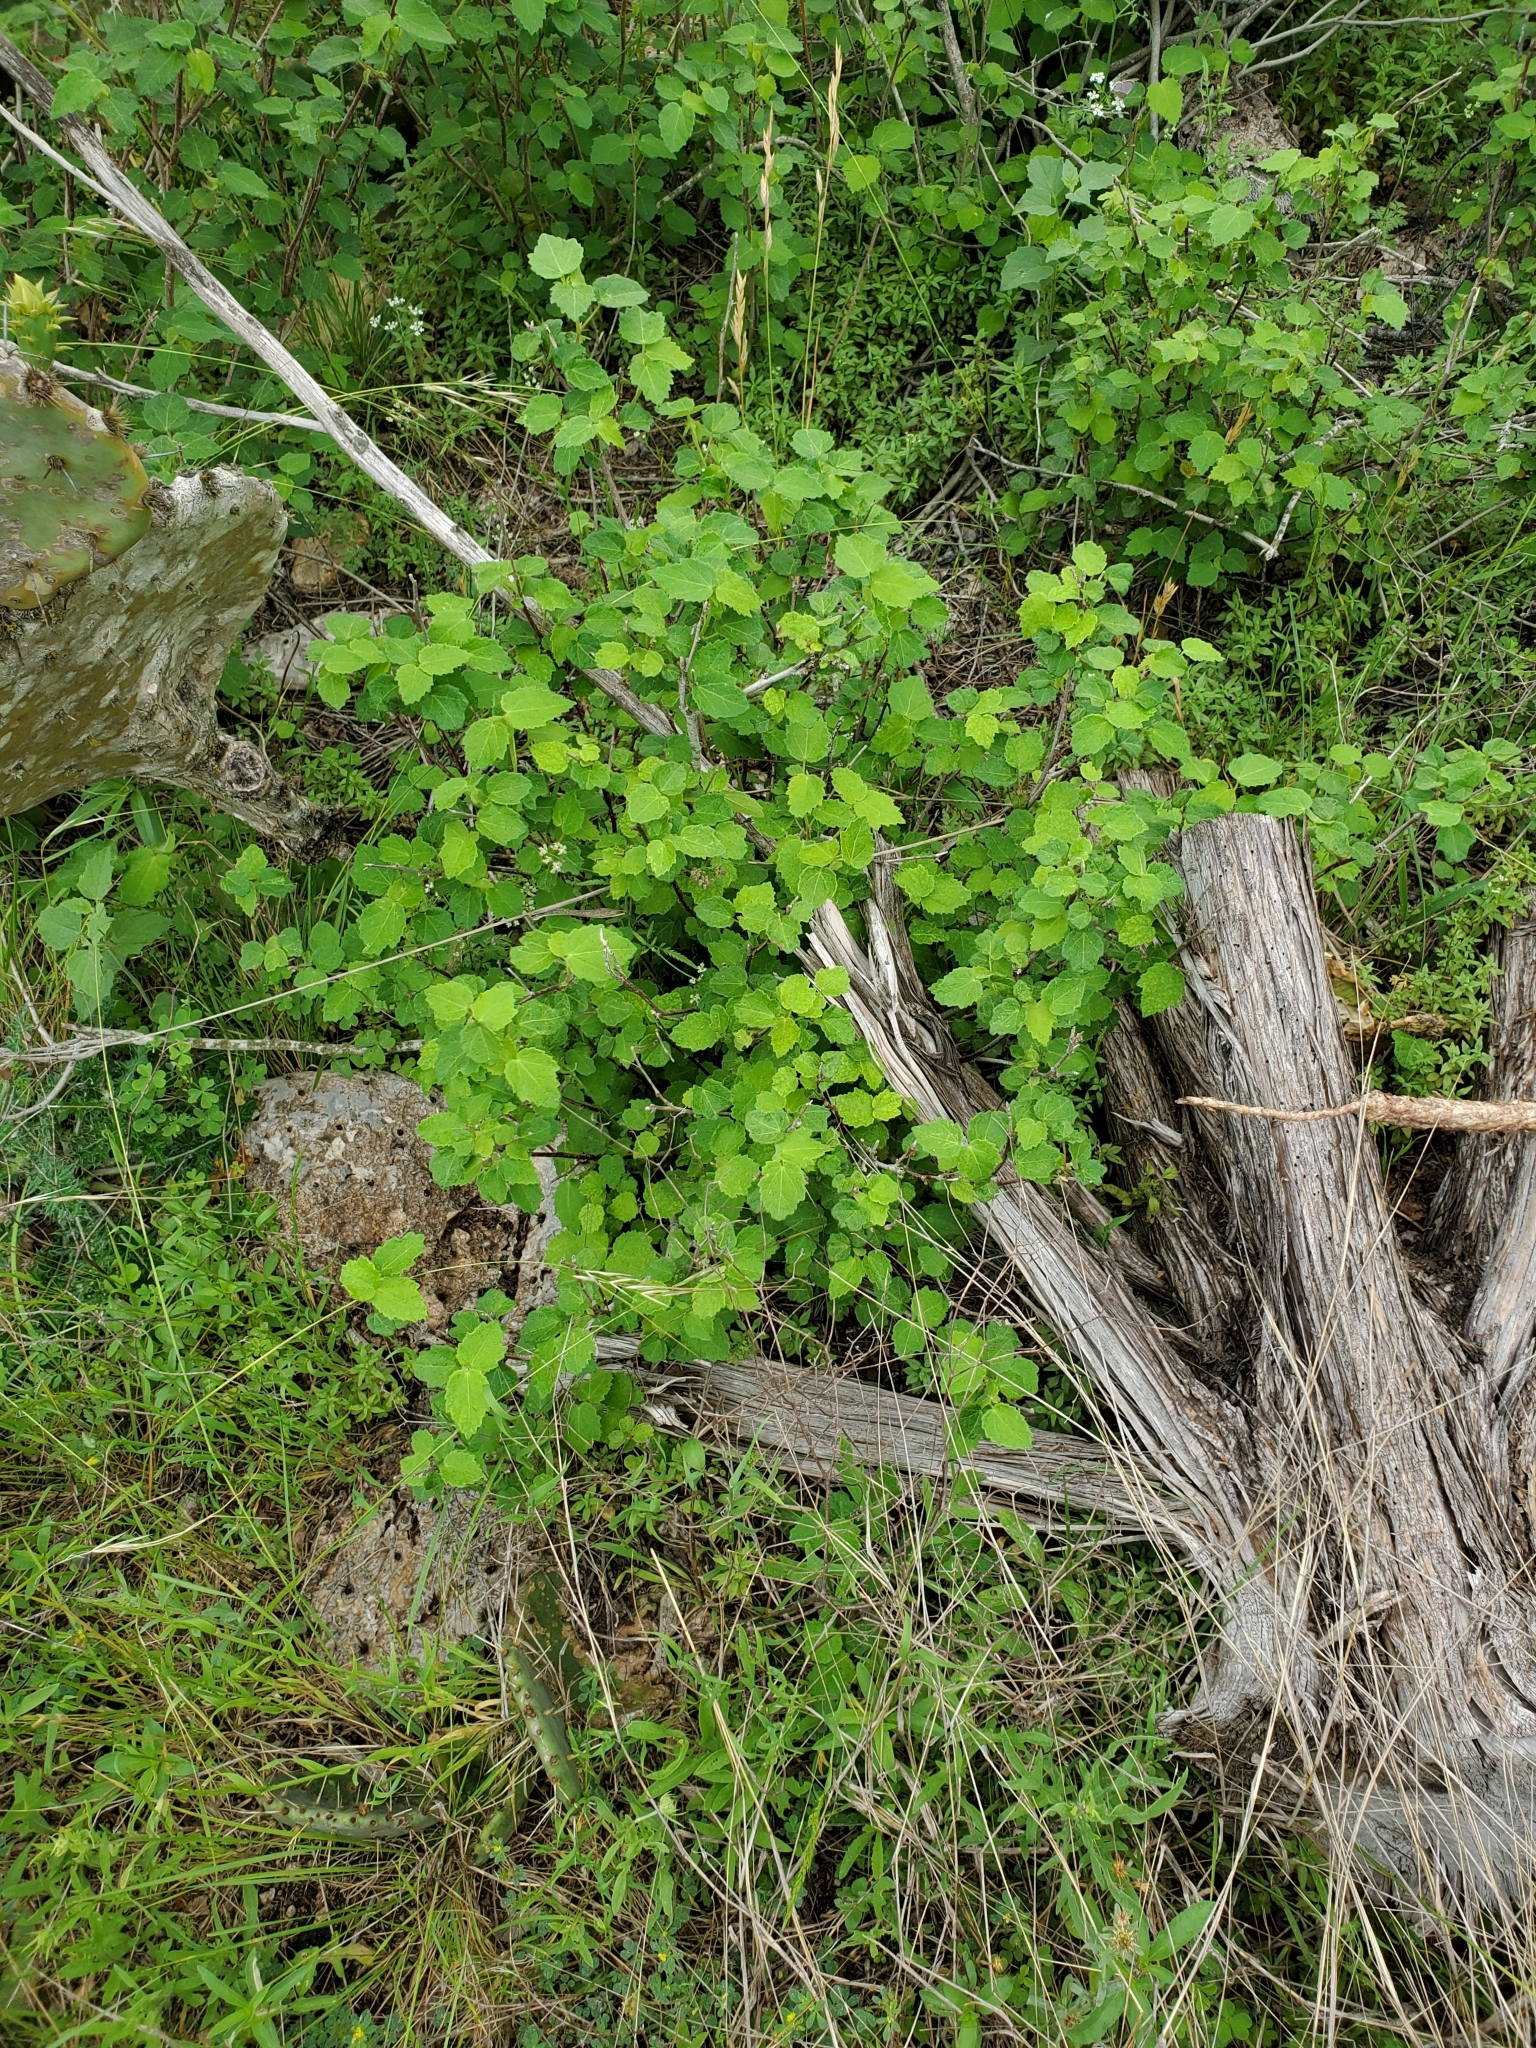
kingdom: Plantae
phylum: Tracheophyta
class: Magnoliopsida
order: Malvales
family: Malvaceae
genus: Pavonia
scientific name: Pavonia lasiopetala
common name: Texas swamp-mallow
